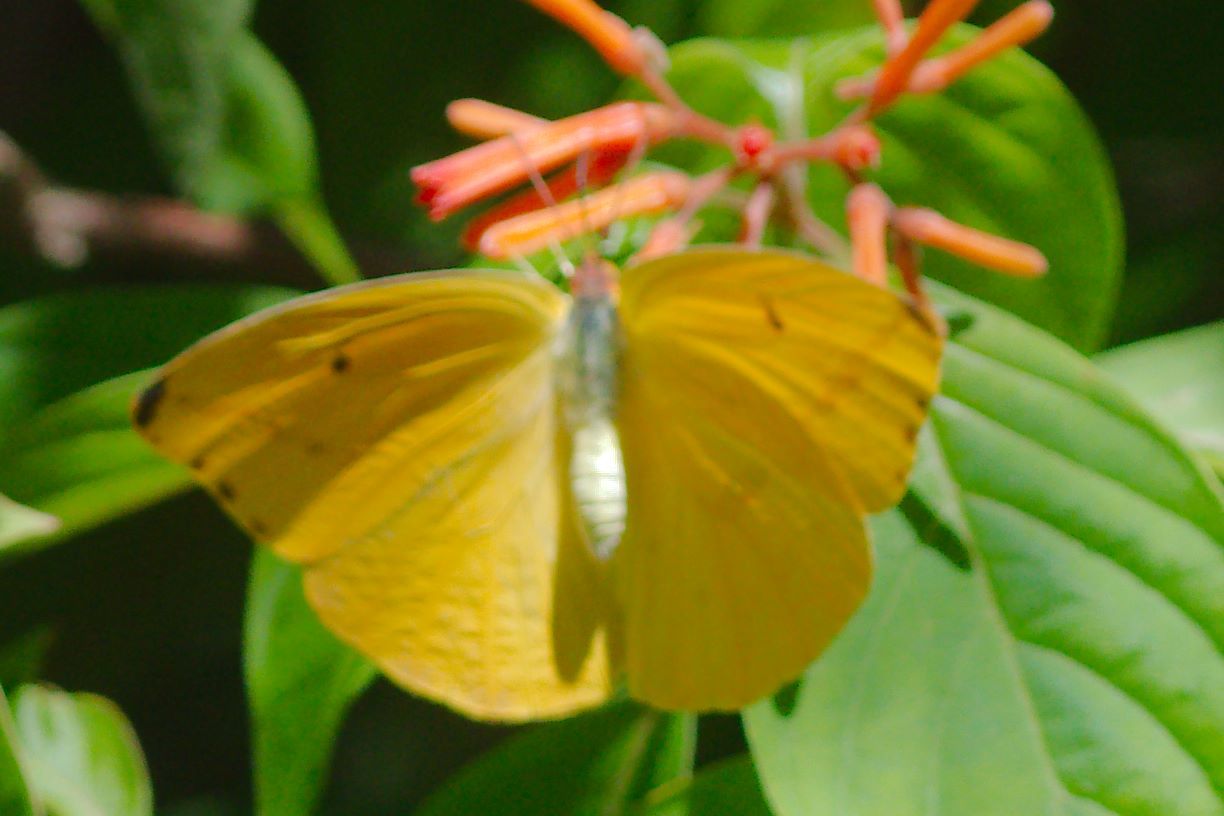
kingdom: Animalia
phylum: Arthropoda
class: Insecta
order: Lepidoptera
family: Pieridae
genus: Phoebis
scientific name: Phoebis agarithe
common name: Large orange sulphur
